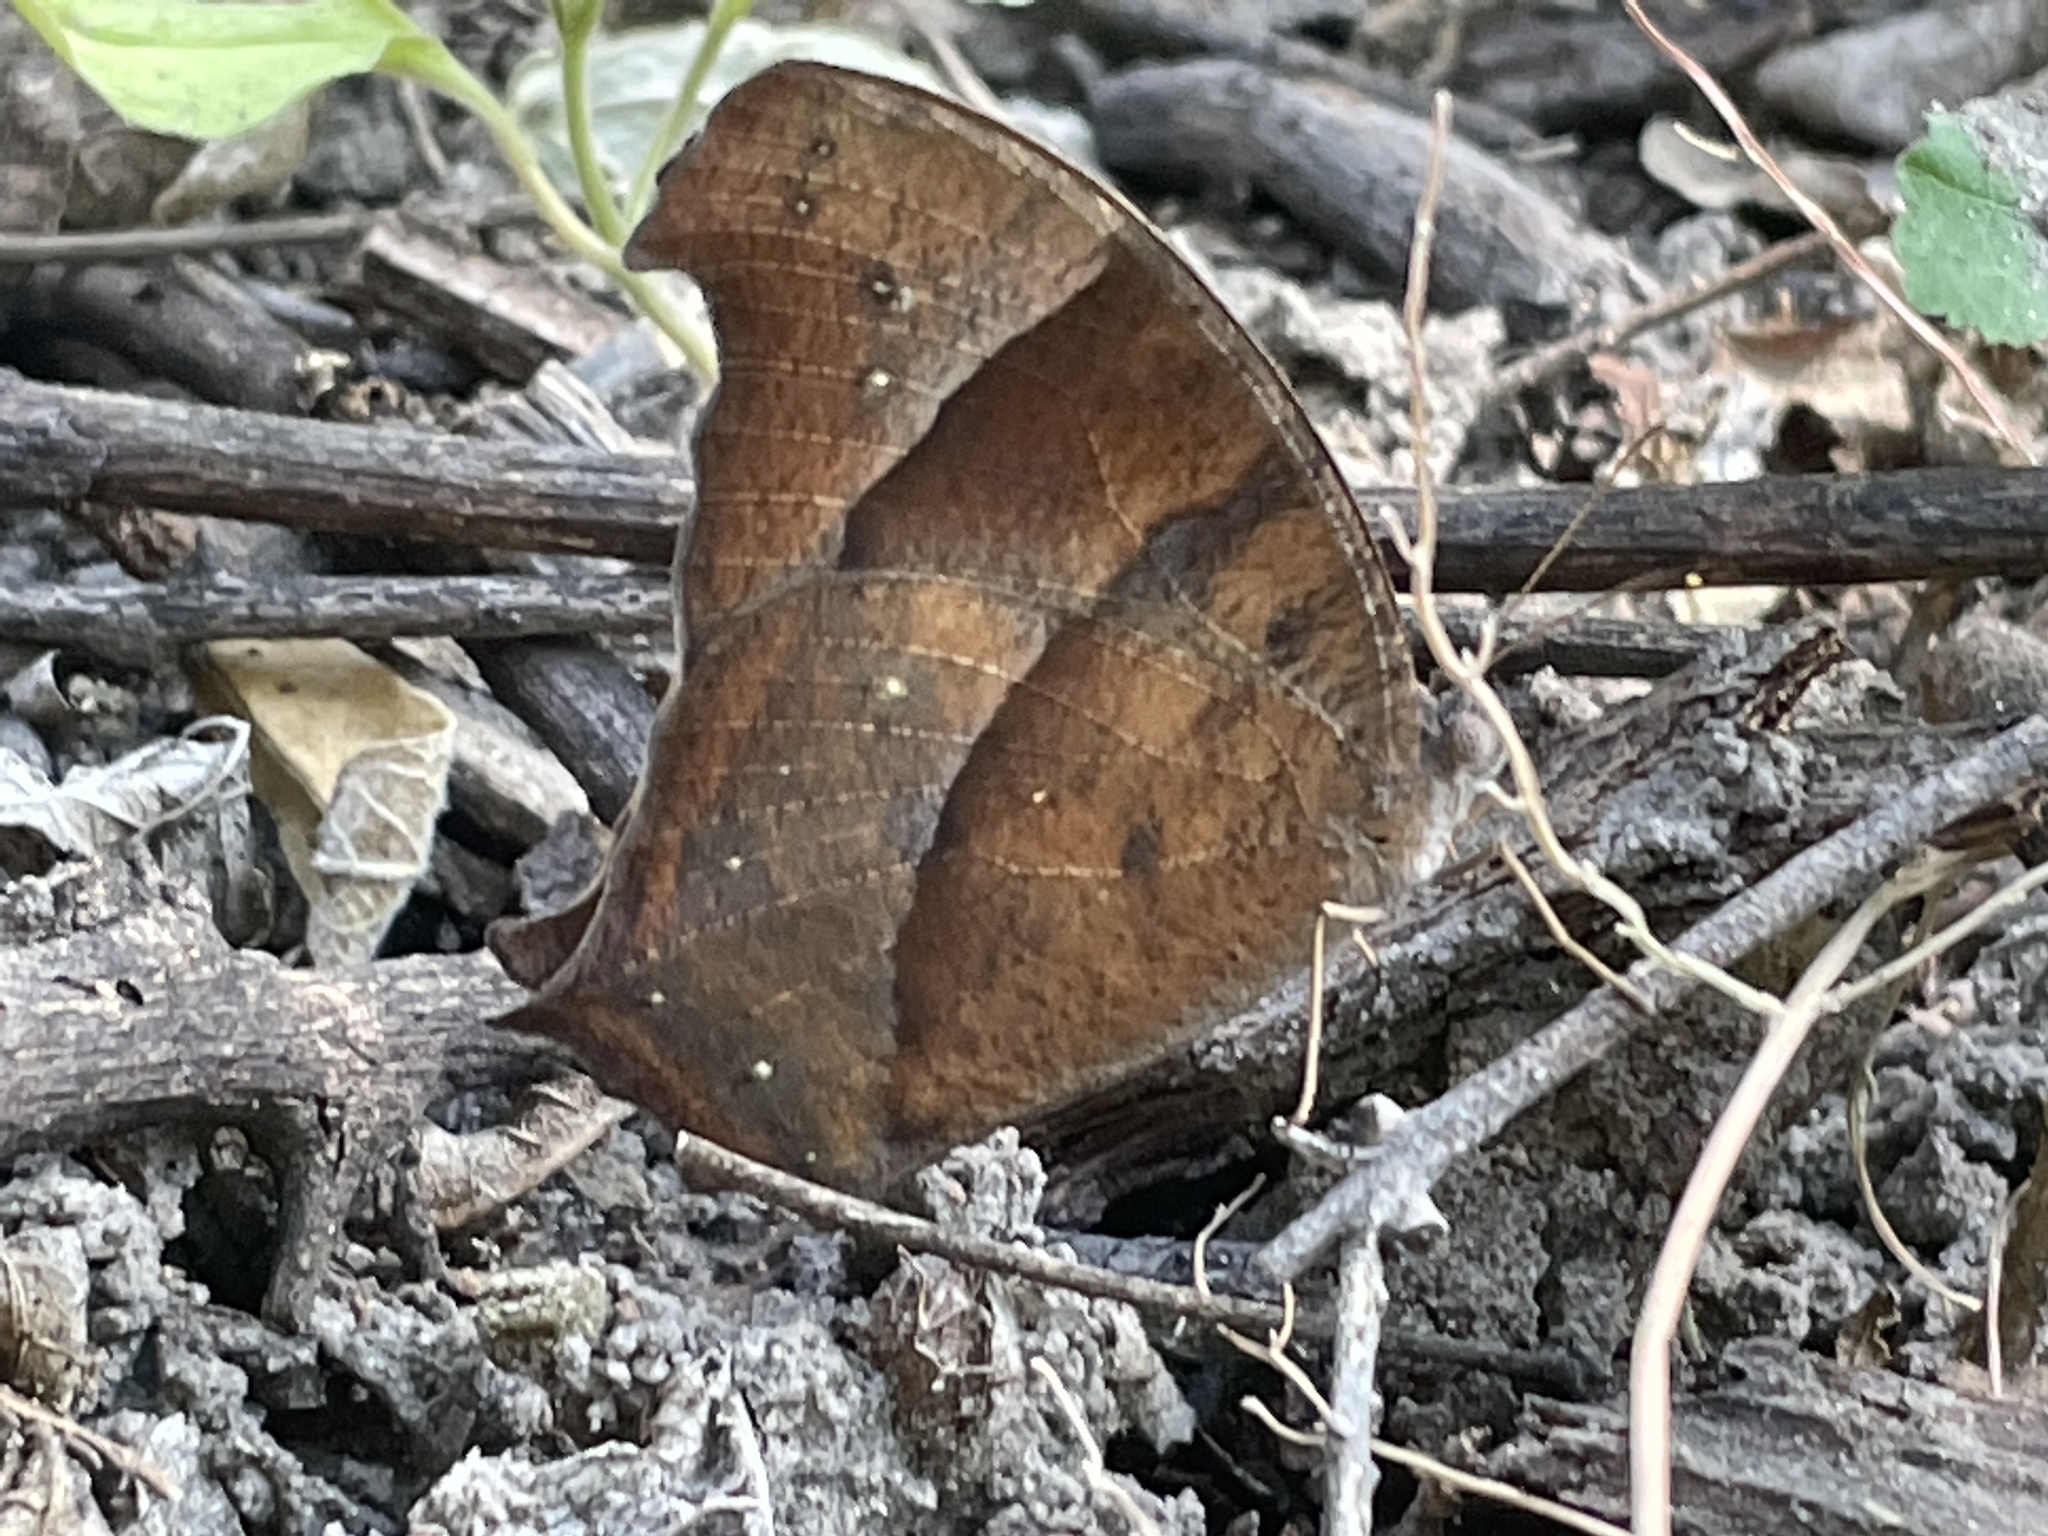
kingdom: Animalia
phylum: Arthropoda
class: Insecta
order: Lepidoptera
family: Nymphalidae
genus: Melanitis
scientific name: Melanitis leda
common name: Twilight brown
